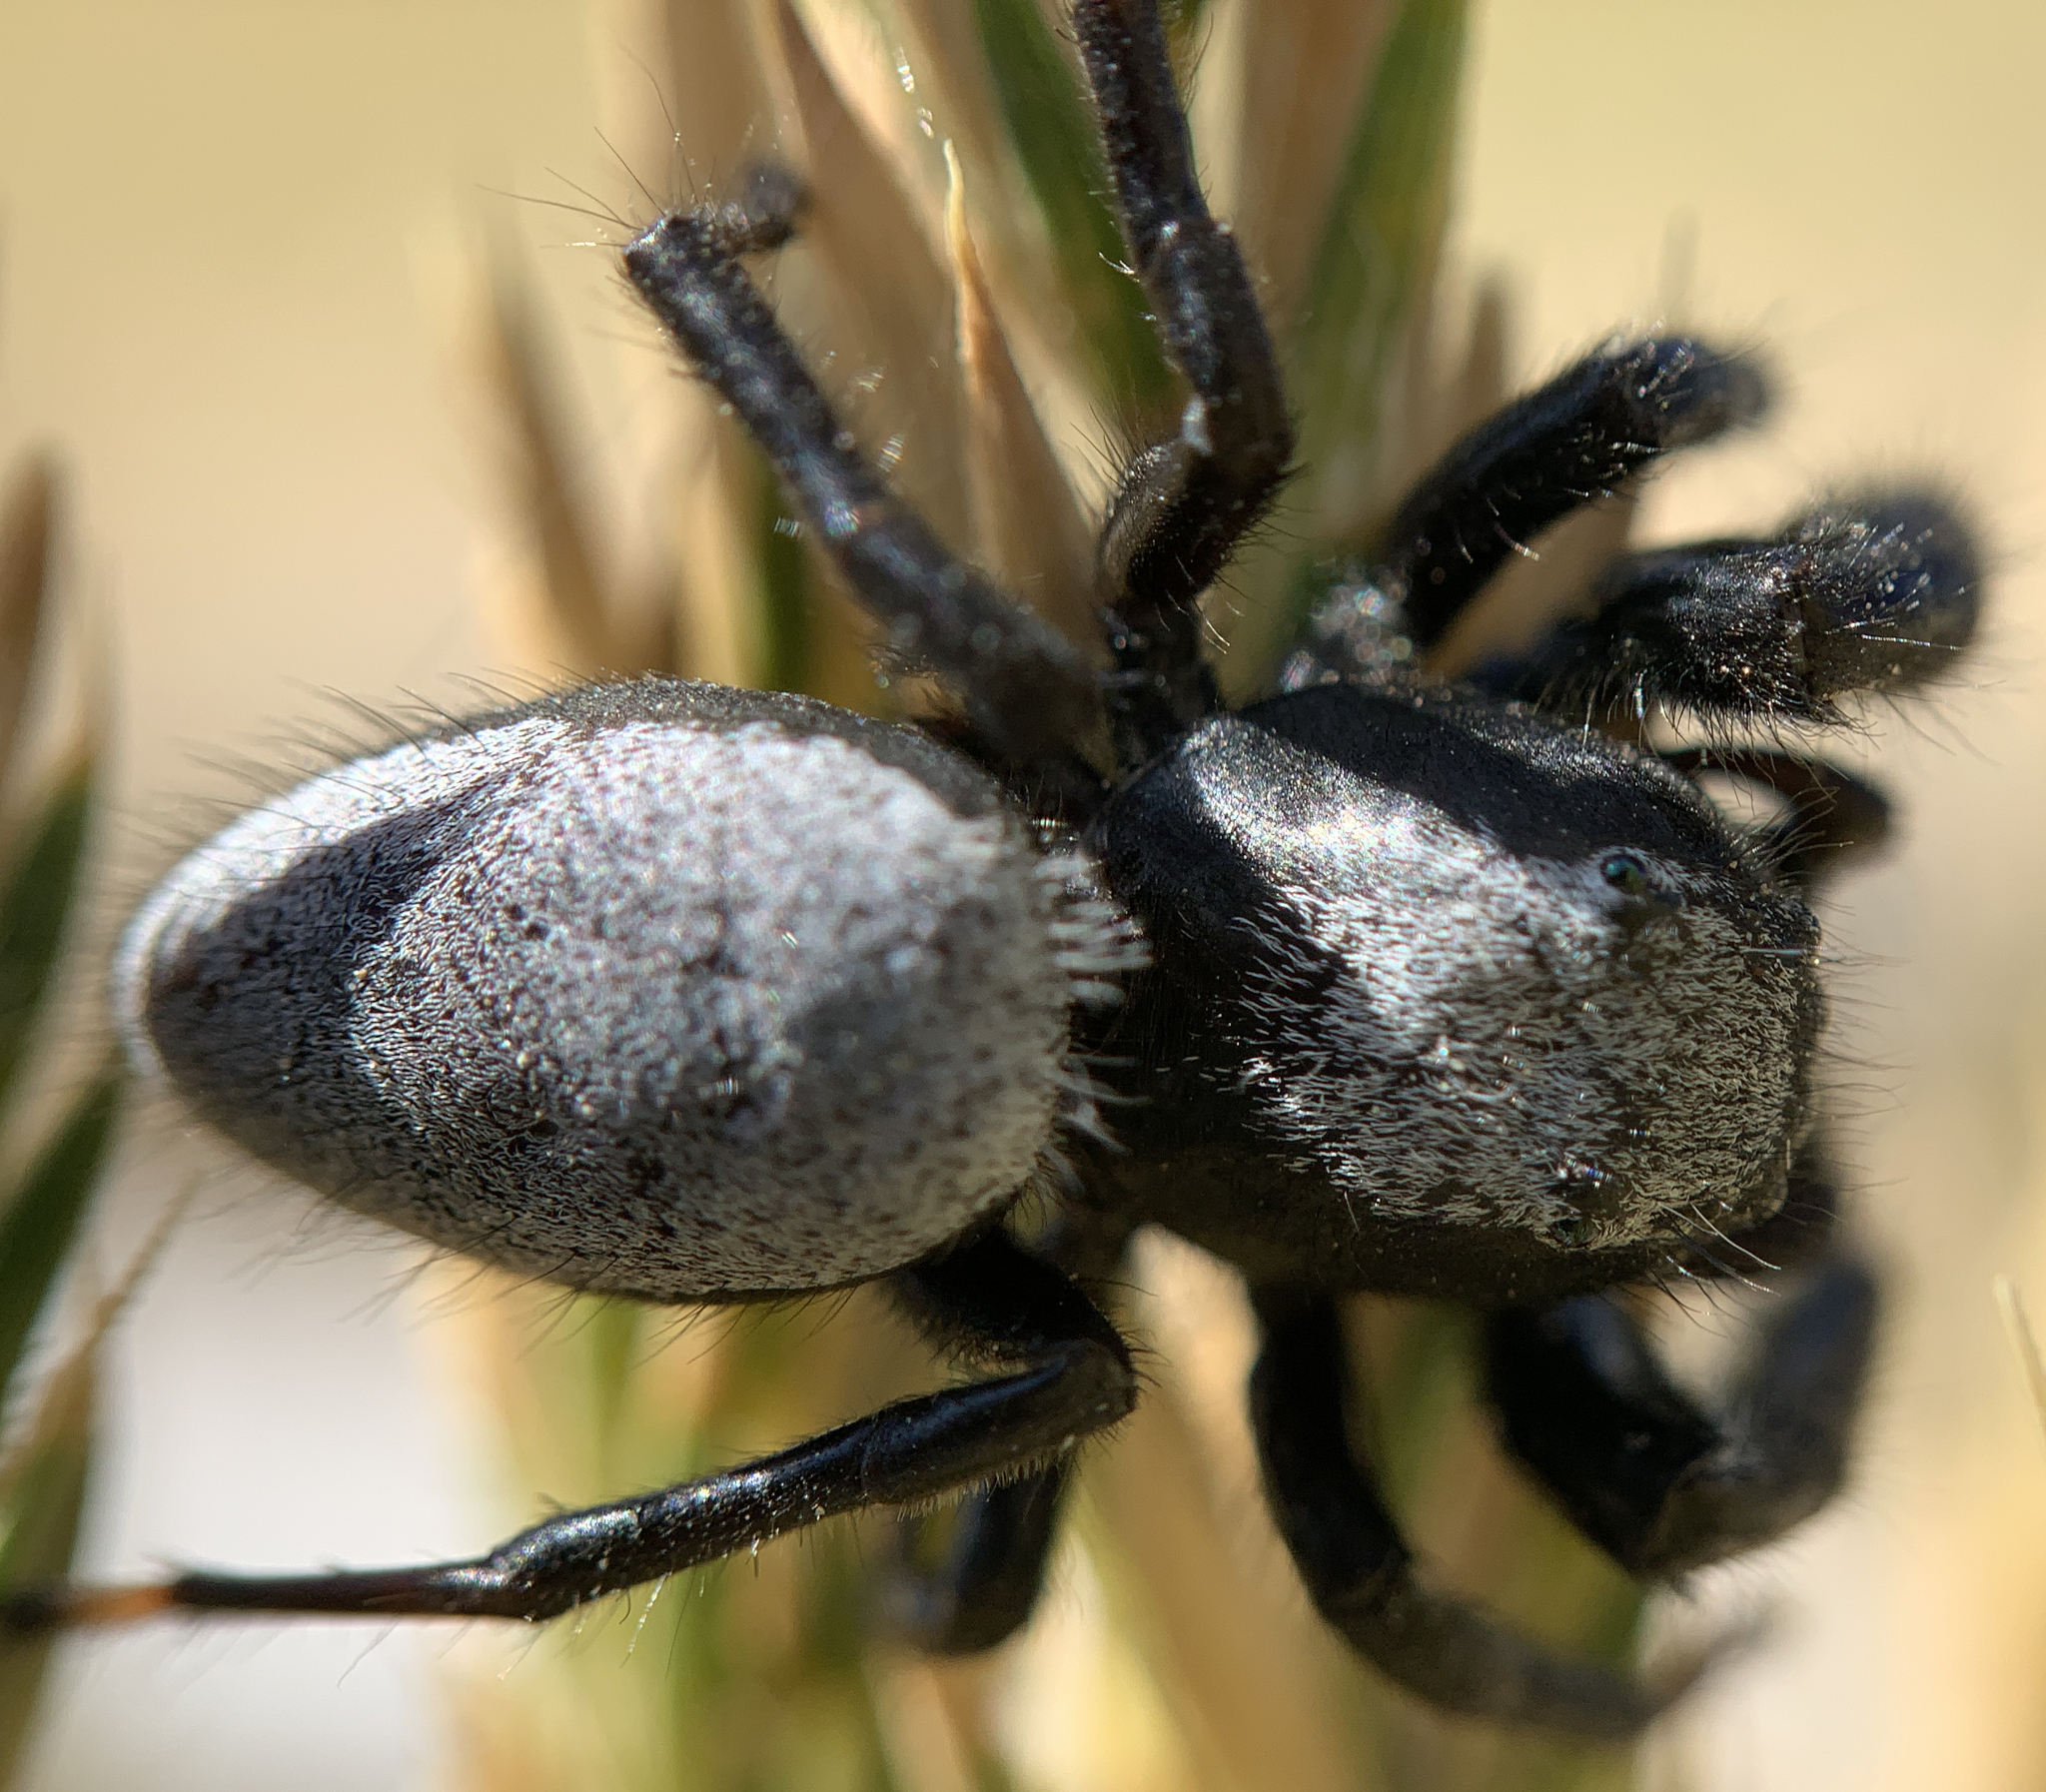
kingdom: Animalia
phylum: Arthropoda
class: Arachnida
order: Araneae
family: Salticidae
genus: Phidippus
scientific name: Phidippus octopunctatus
